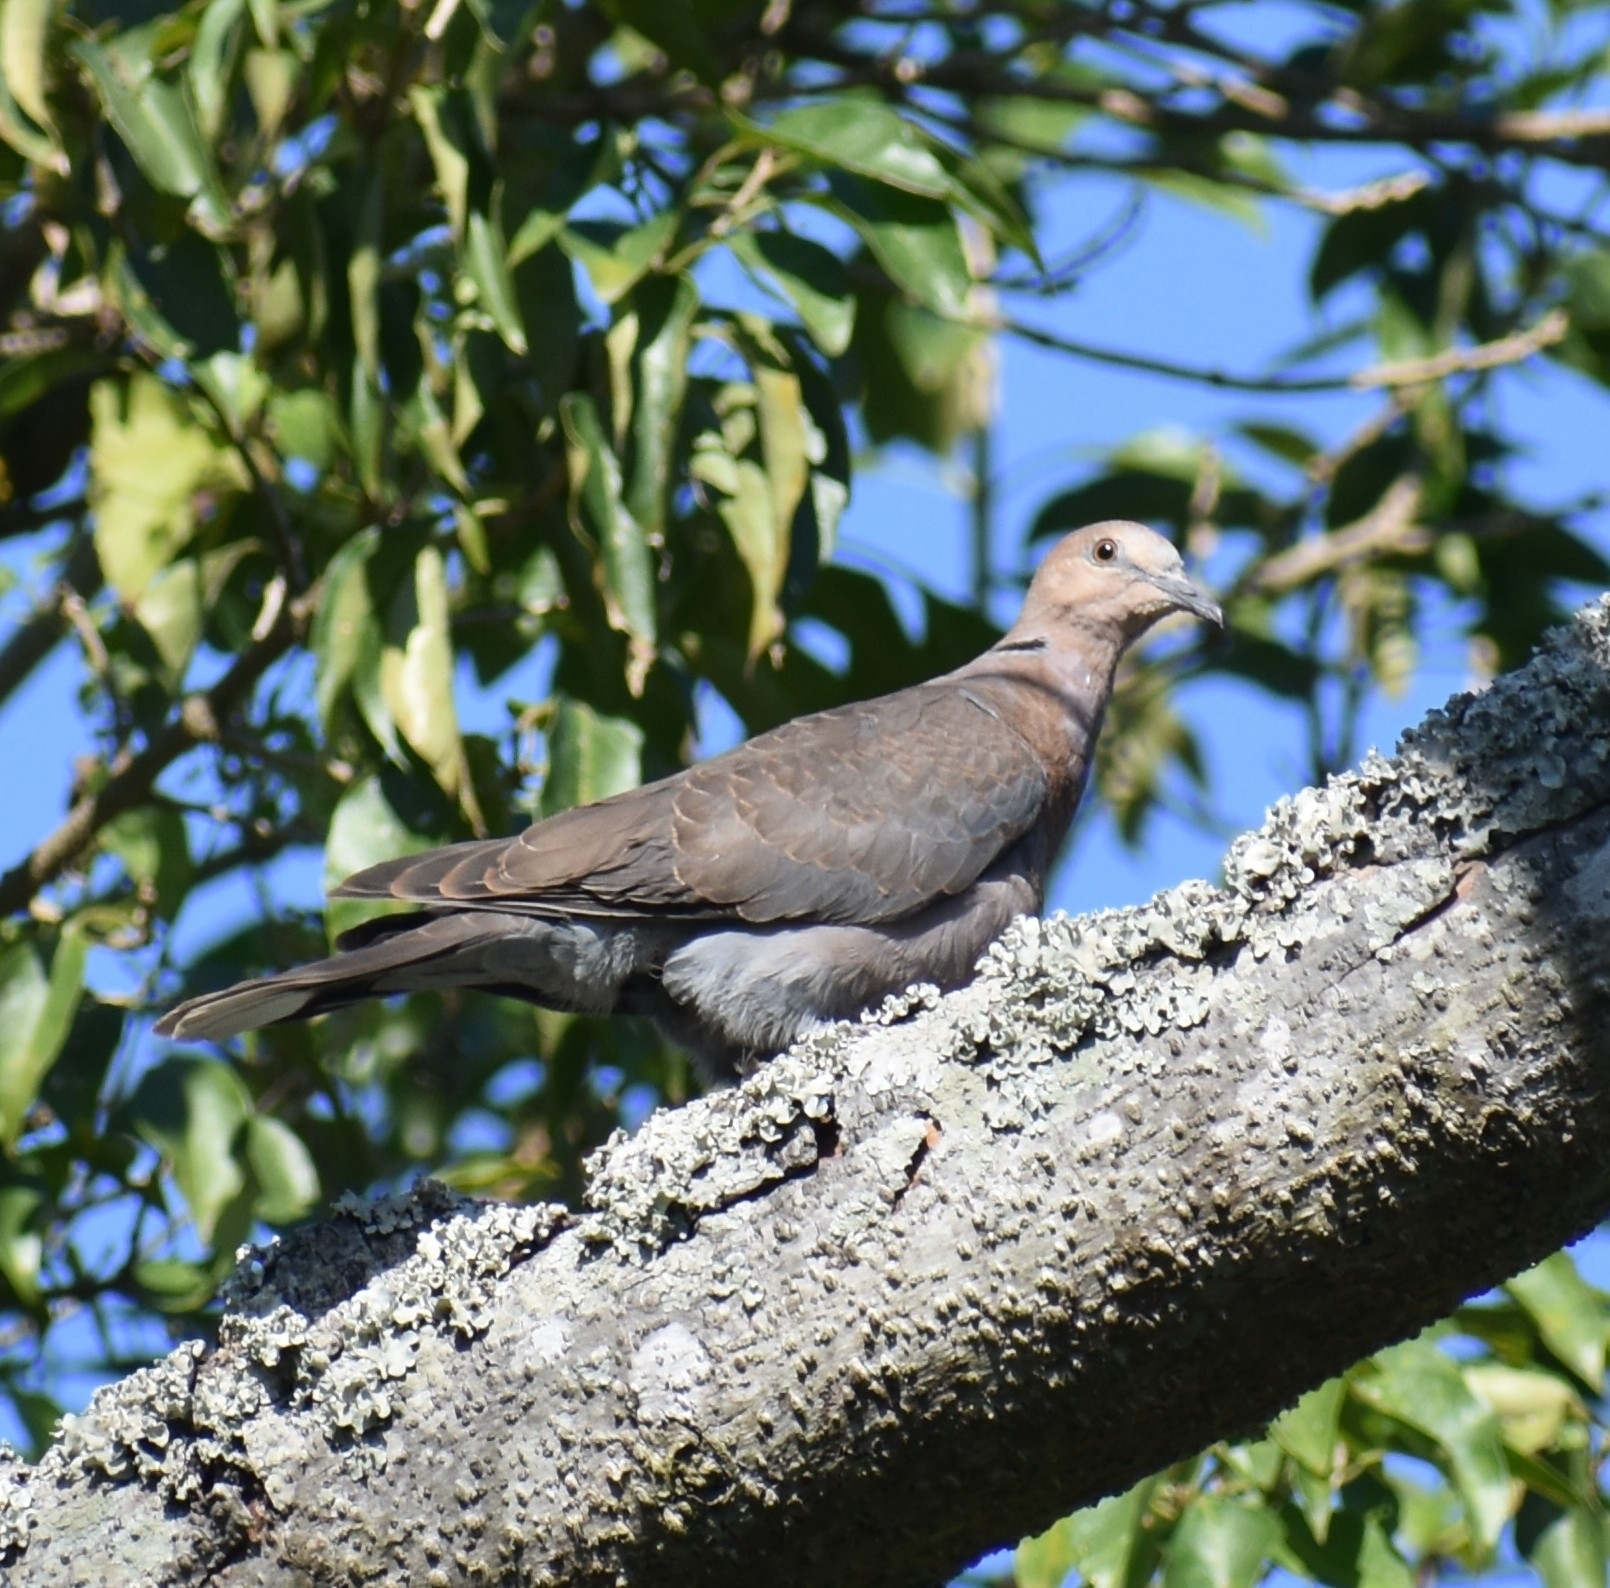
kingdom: Animalia
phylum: Chordata
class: Aves
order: Columbiformes
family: Columbidae
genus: Streptopelia
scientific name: Streptopelia semitorquata
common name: Red-eyed dove
